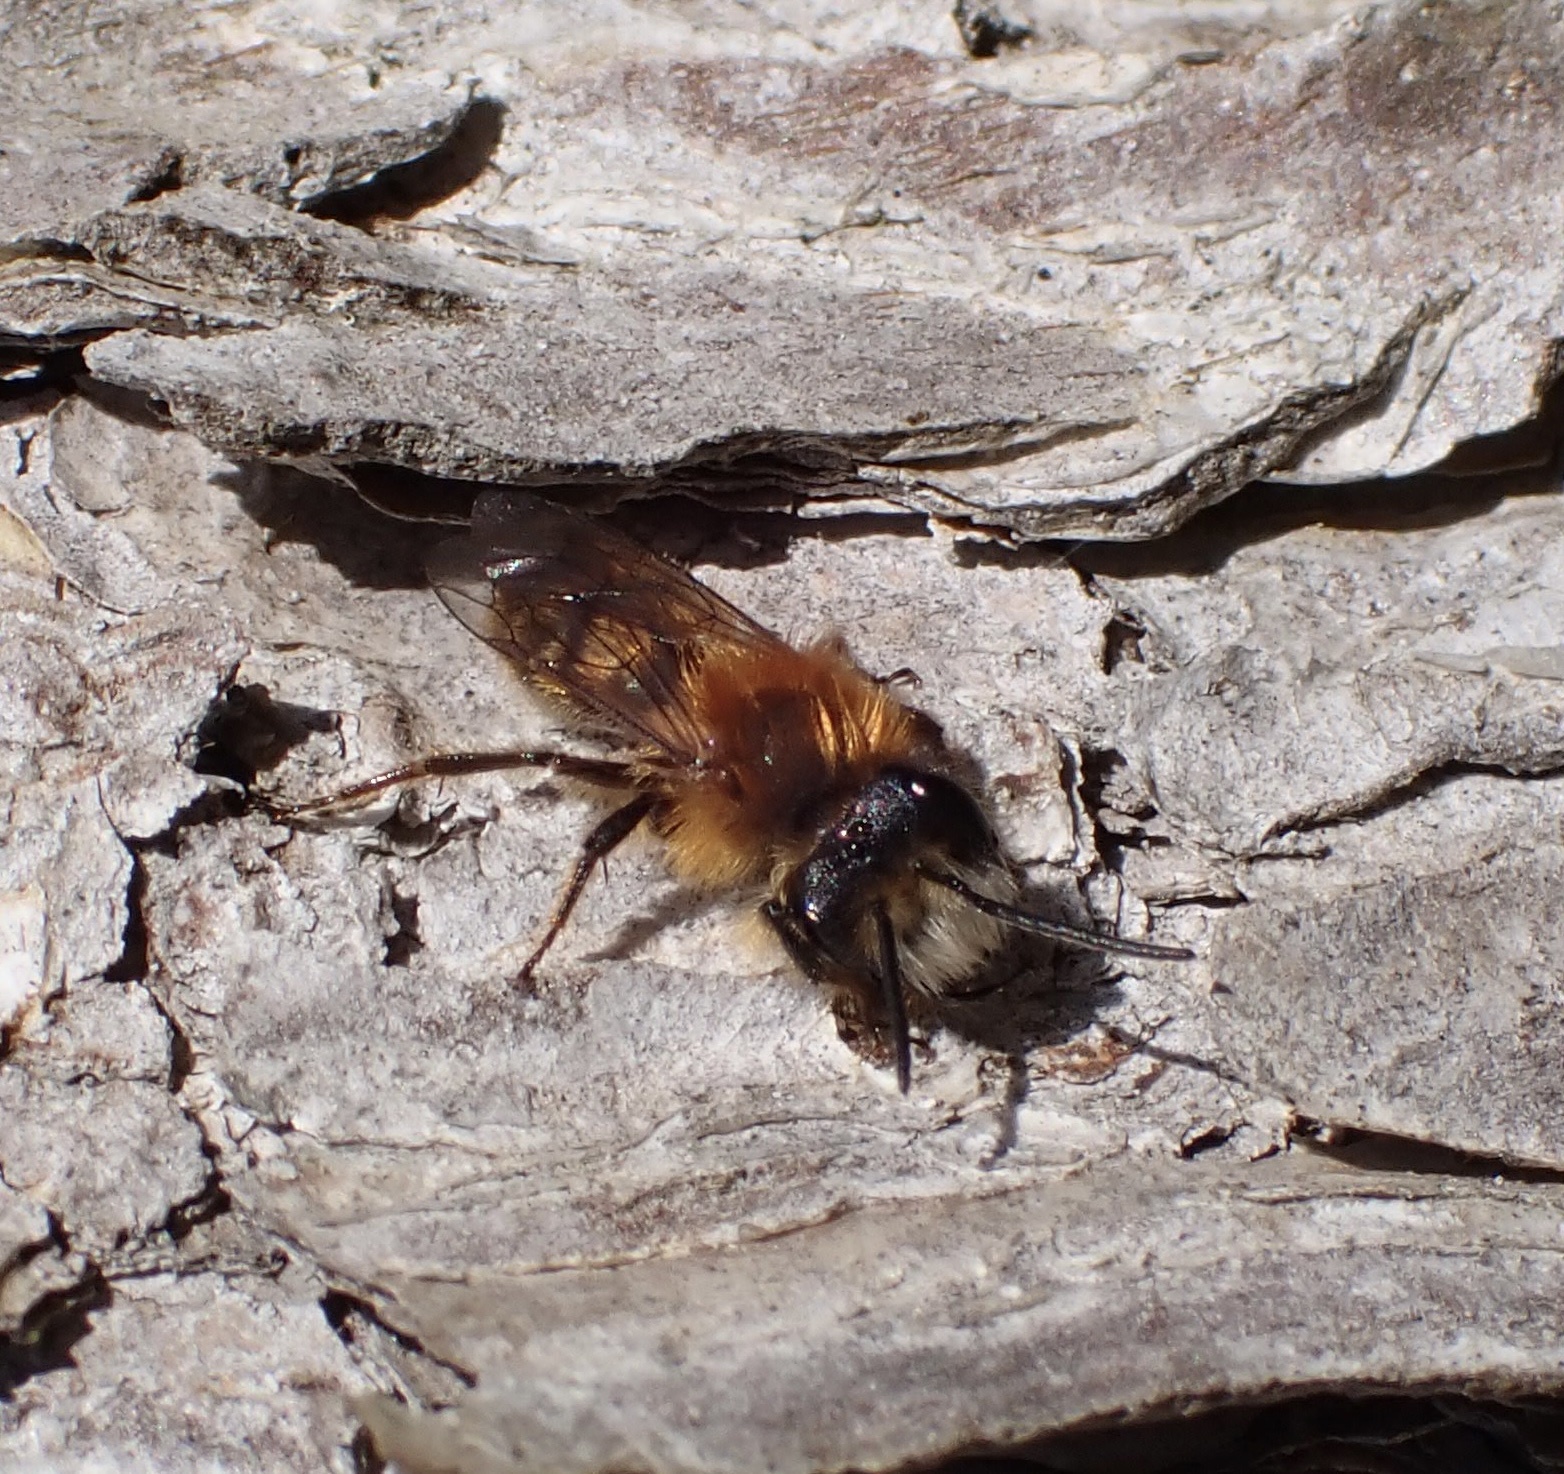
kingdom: Animalia
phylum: Arthropoda
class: Insecta
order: Hymenoptera
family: Andrenidae
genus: Andrena
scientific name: Andrena fulva
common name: Tawny mining bee
